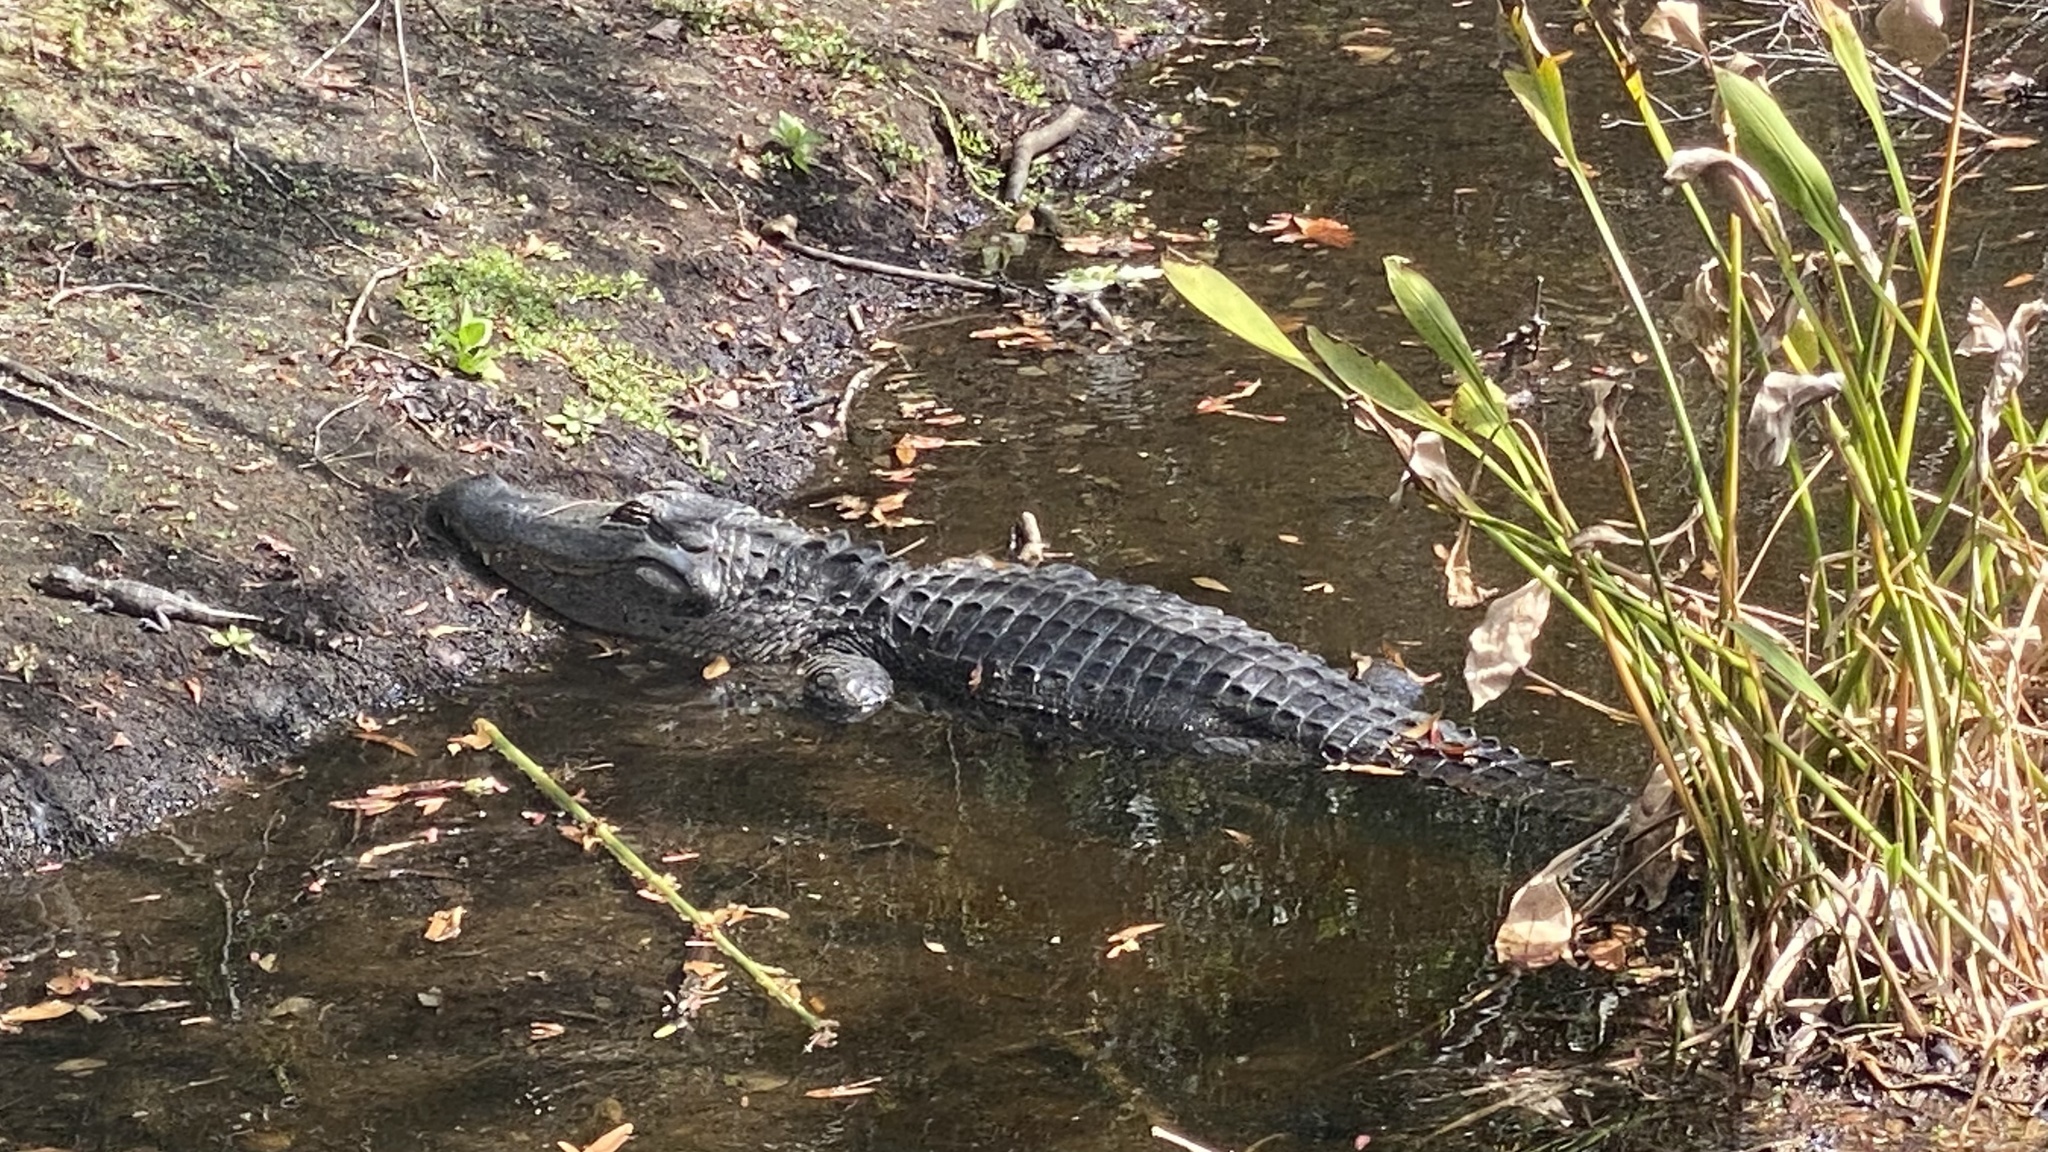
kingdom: Animalia
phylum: Chordata
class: Crocodylia
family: Alligatoridae
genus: Alligator
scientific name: Alligator mississippiensis
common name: American alligator
